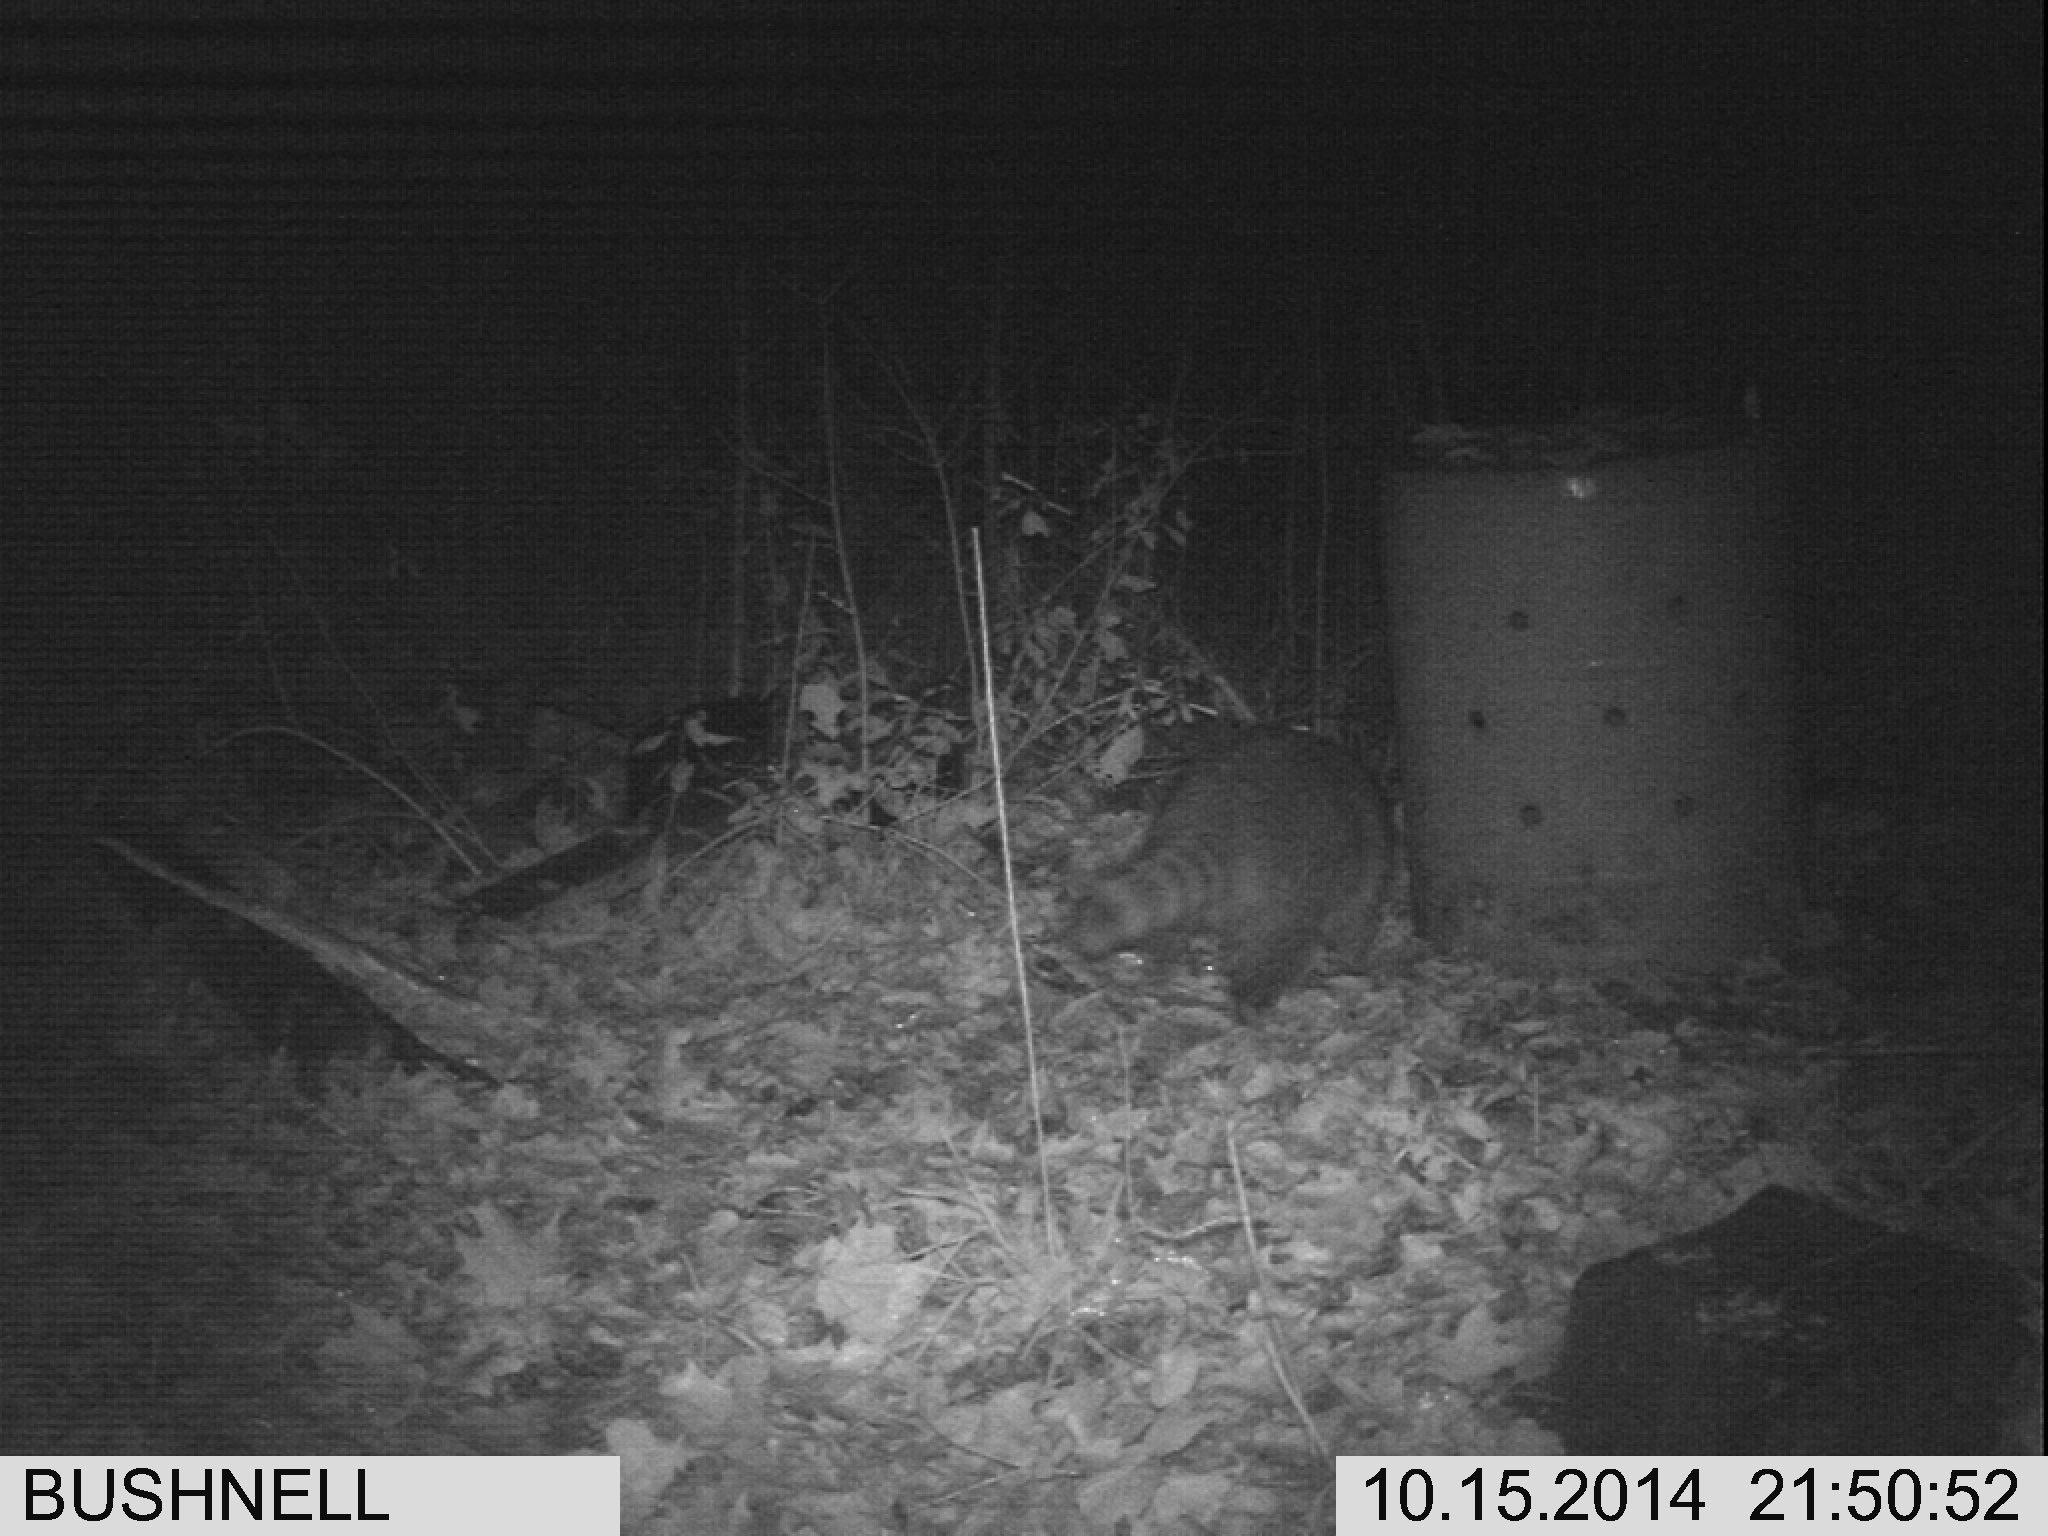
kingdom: Animalia
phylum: Chordata
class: Mammalia
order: Carnivora
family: Procyonidae
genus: Procyon
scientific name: Procyon lotor
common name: Raccoon
